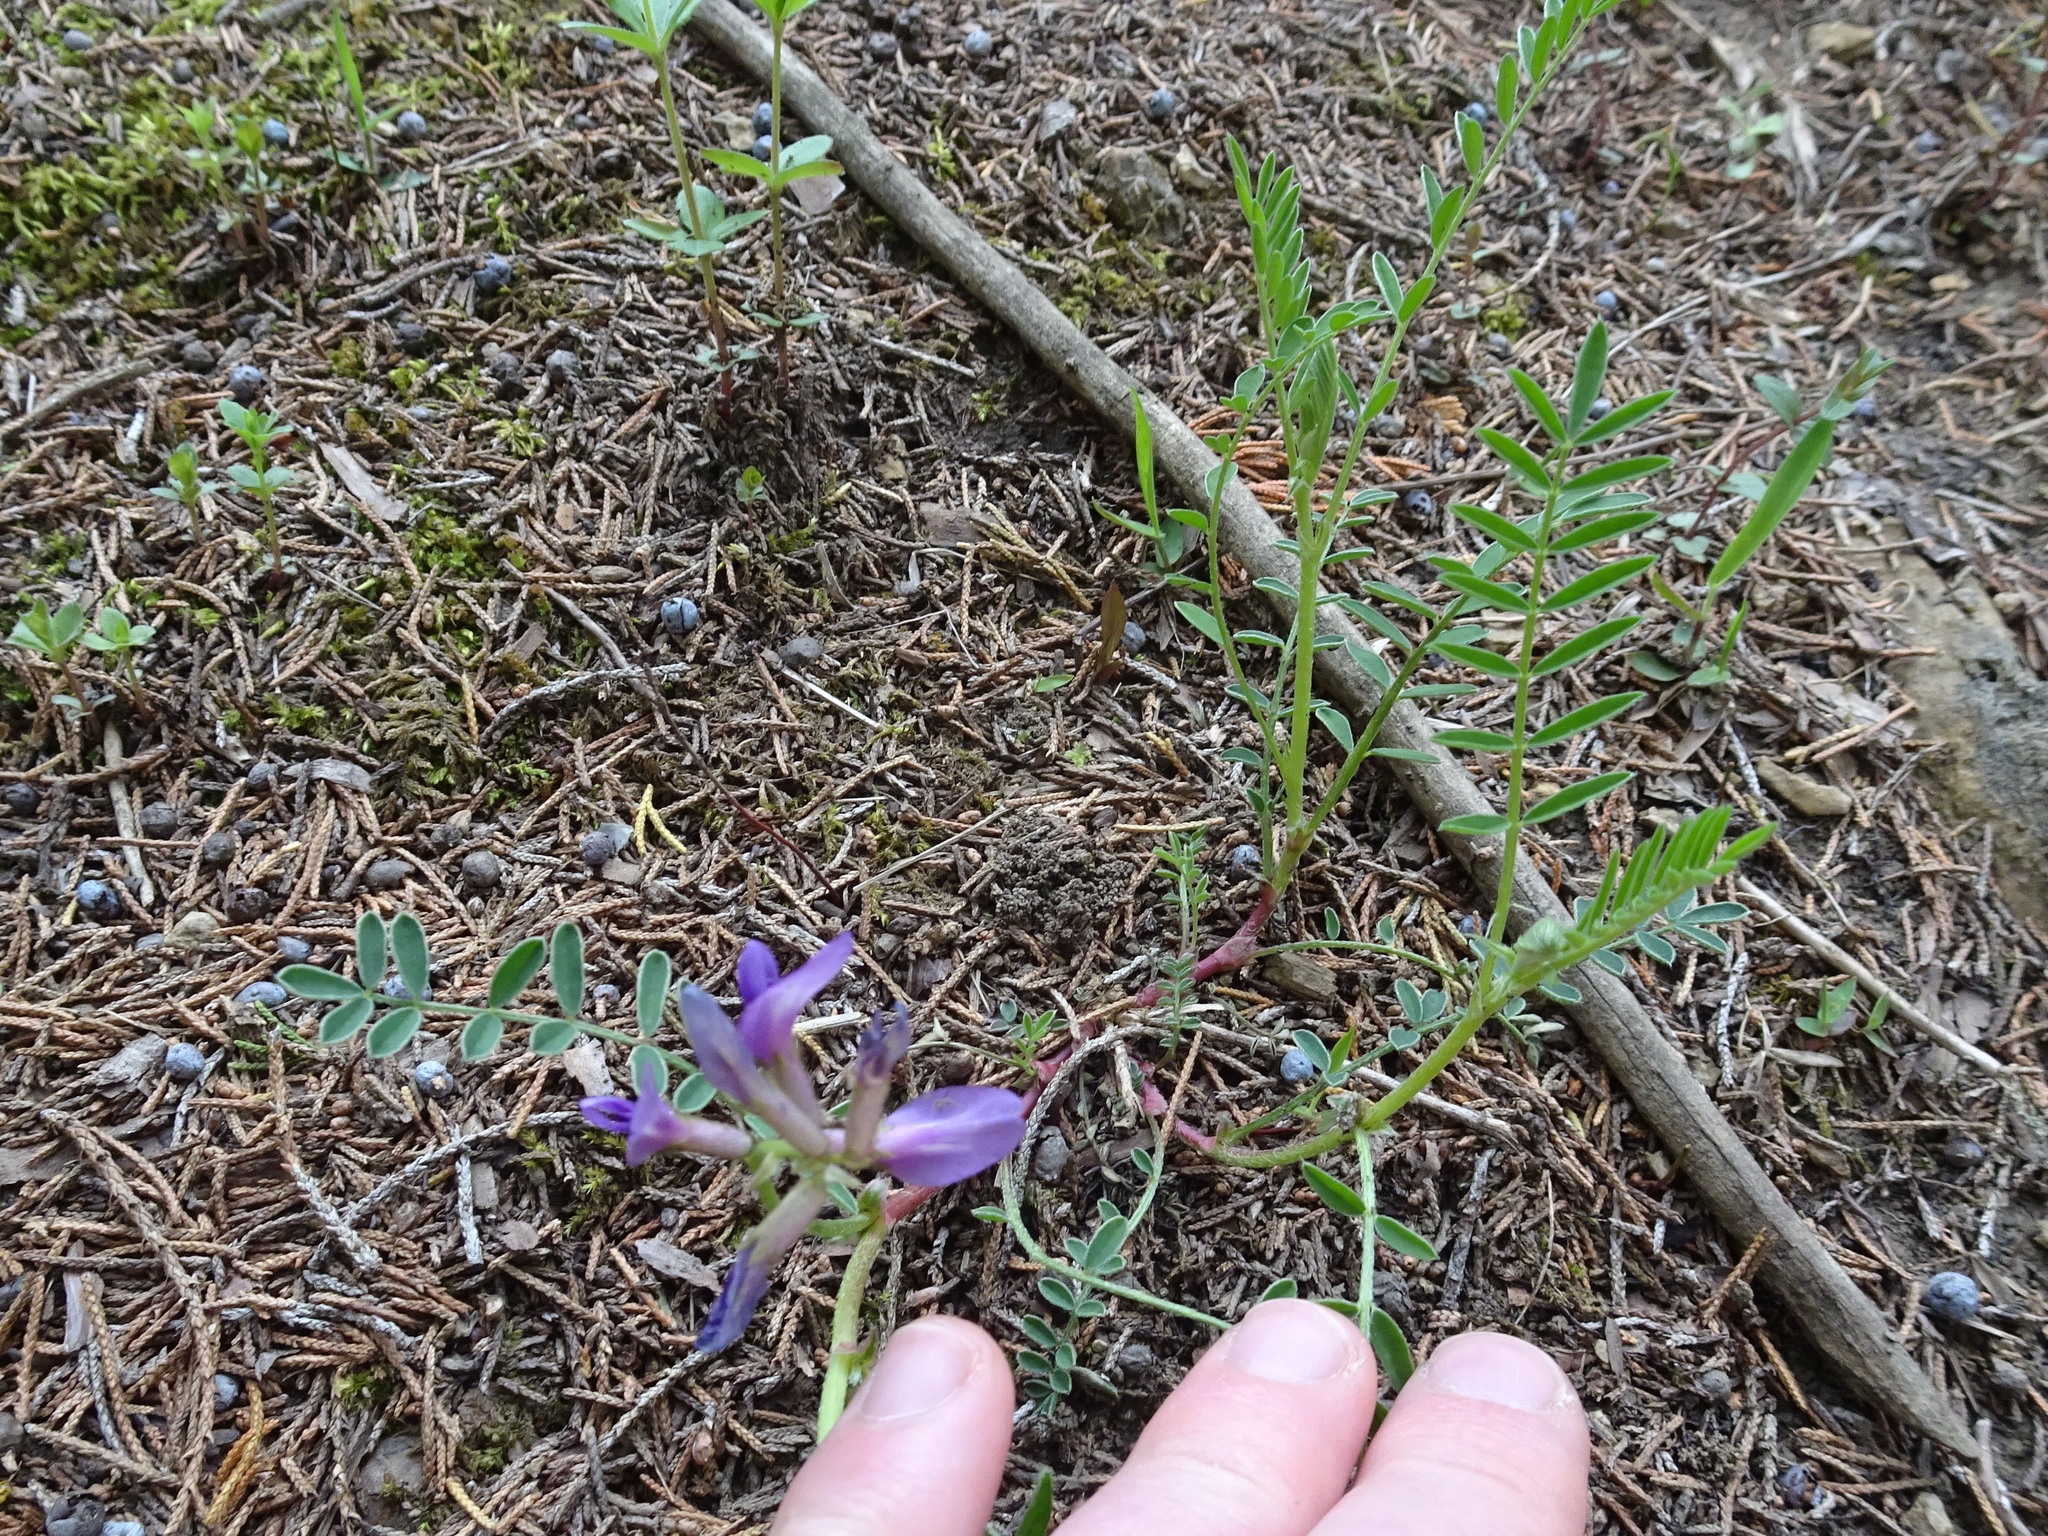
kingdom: Plantae
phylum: Tracheophyta
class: Magnoliopsida
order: Fabales
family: Fabaceae
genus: Astragalus
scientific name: Astragalus crassicarpus
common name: Ground-plum milk-vetch
